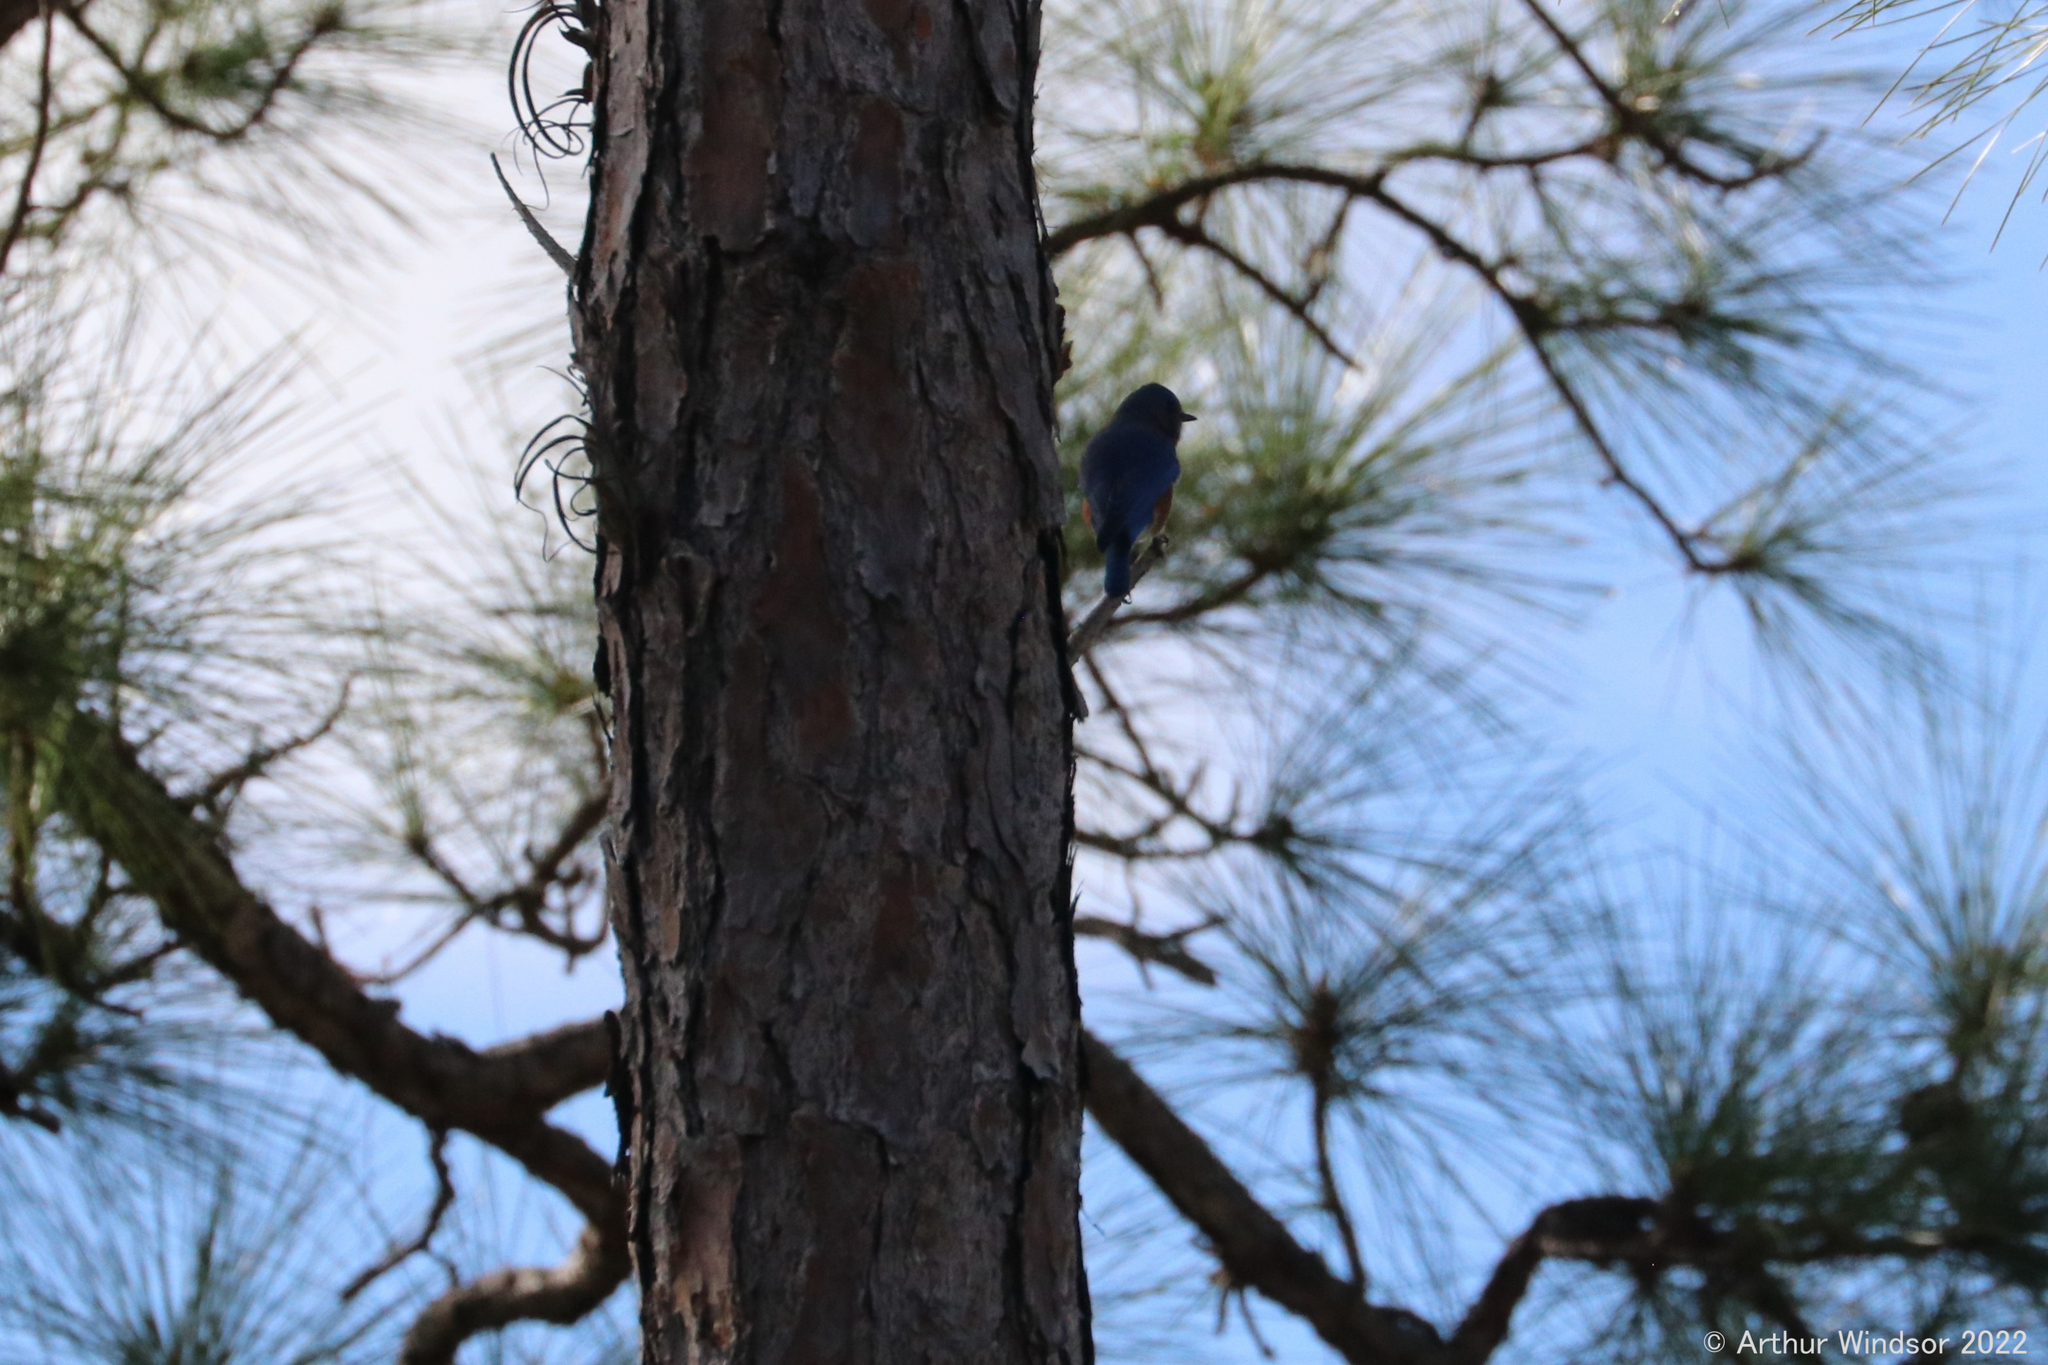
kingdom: Animalia
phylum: Chordata
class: Aves
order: Passeriformes
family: Turdidae
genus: Sialia
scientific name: Sialia sialis
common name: Eastern bluebird
